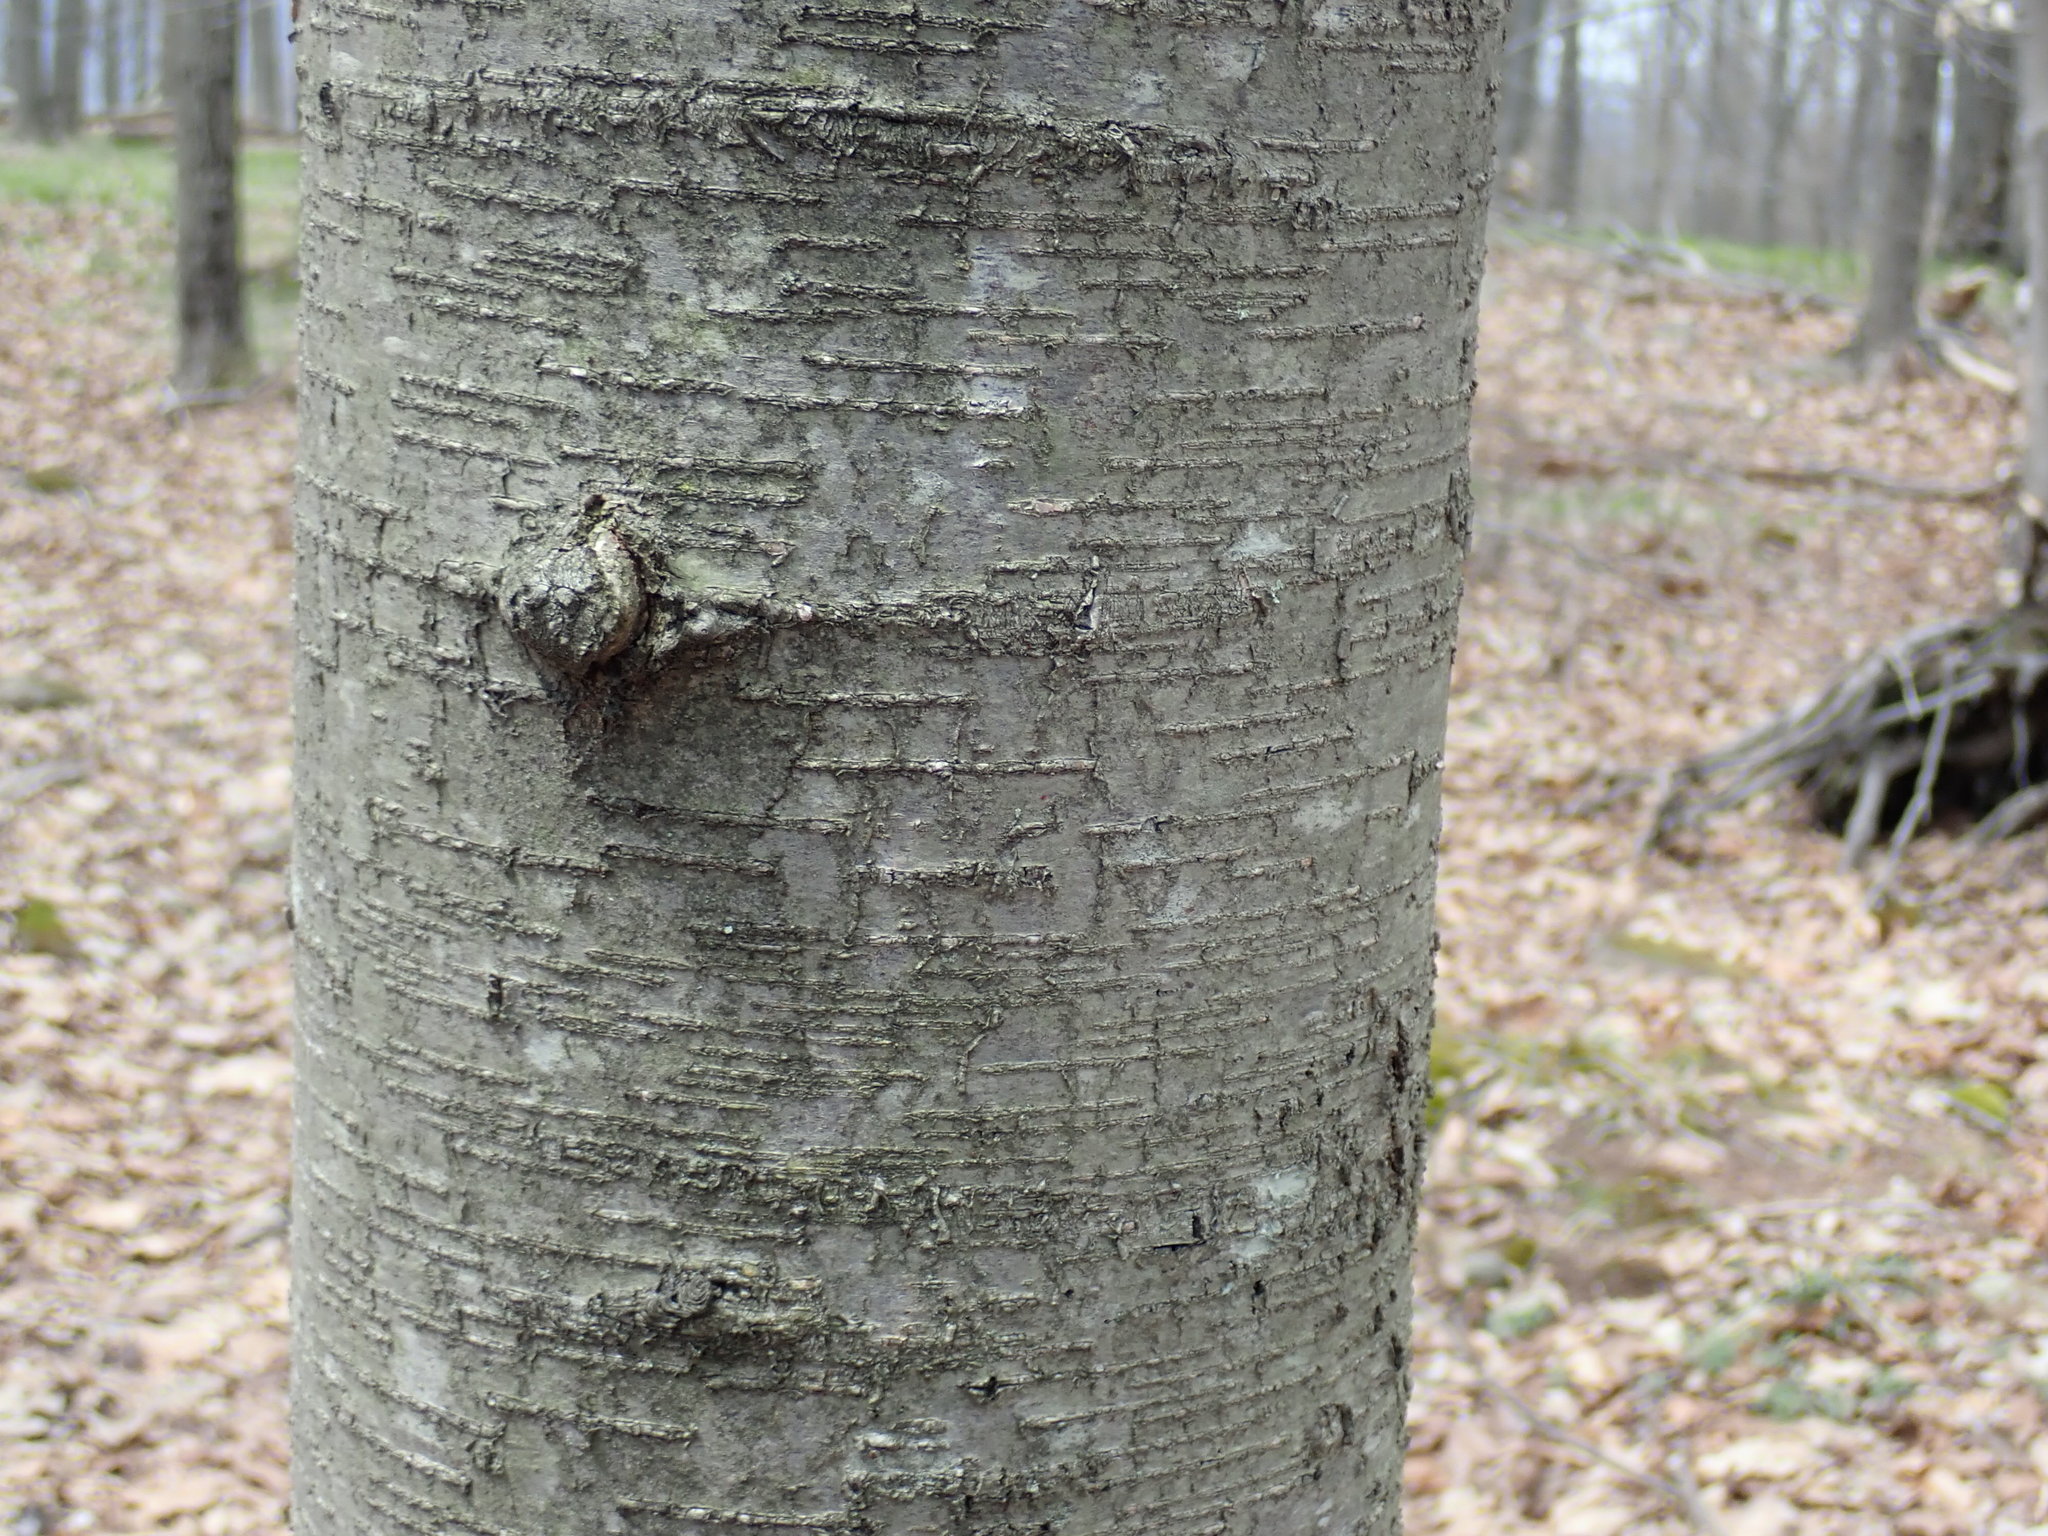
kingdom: Plantae
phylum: Tracheophyta
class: Magnoliopsida
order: Fagales
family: Betulaceae
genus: Betula
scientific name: Betula lenta
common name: Black birch
